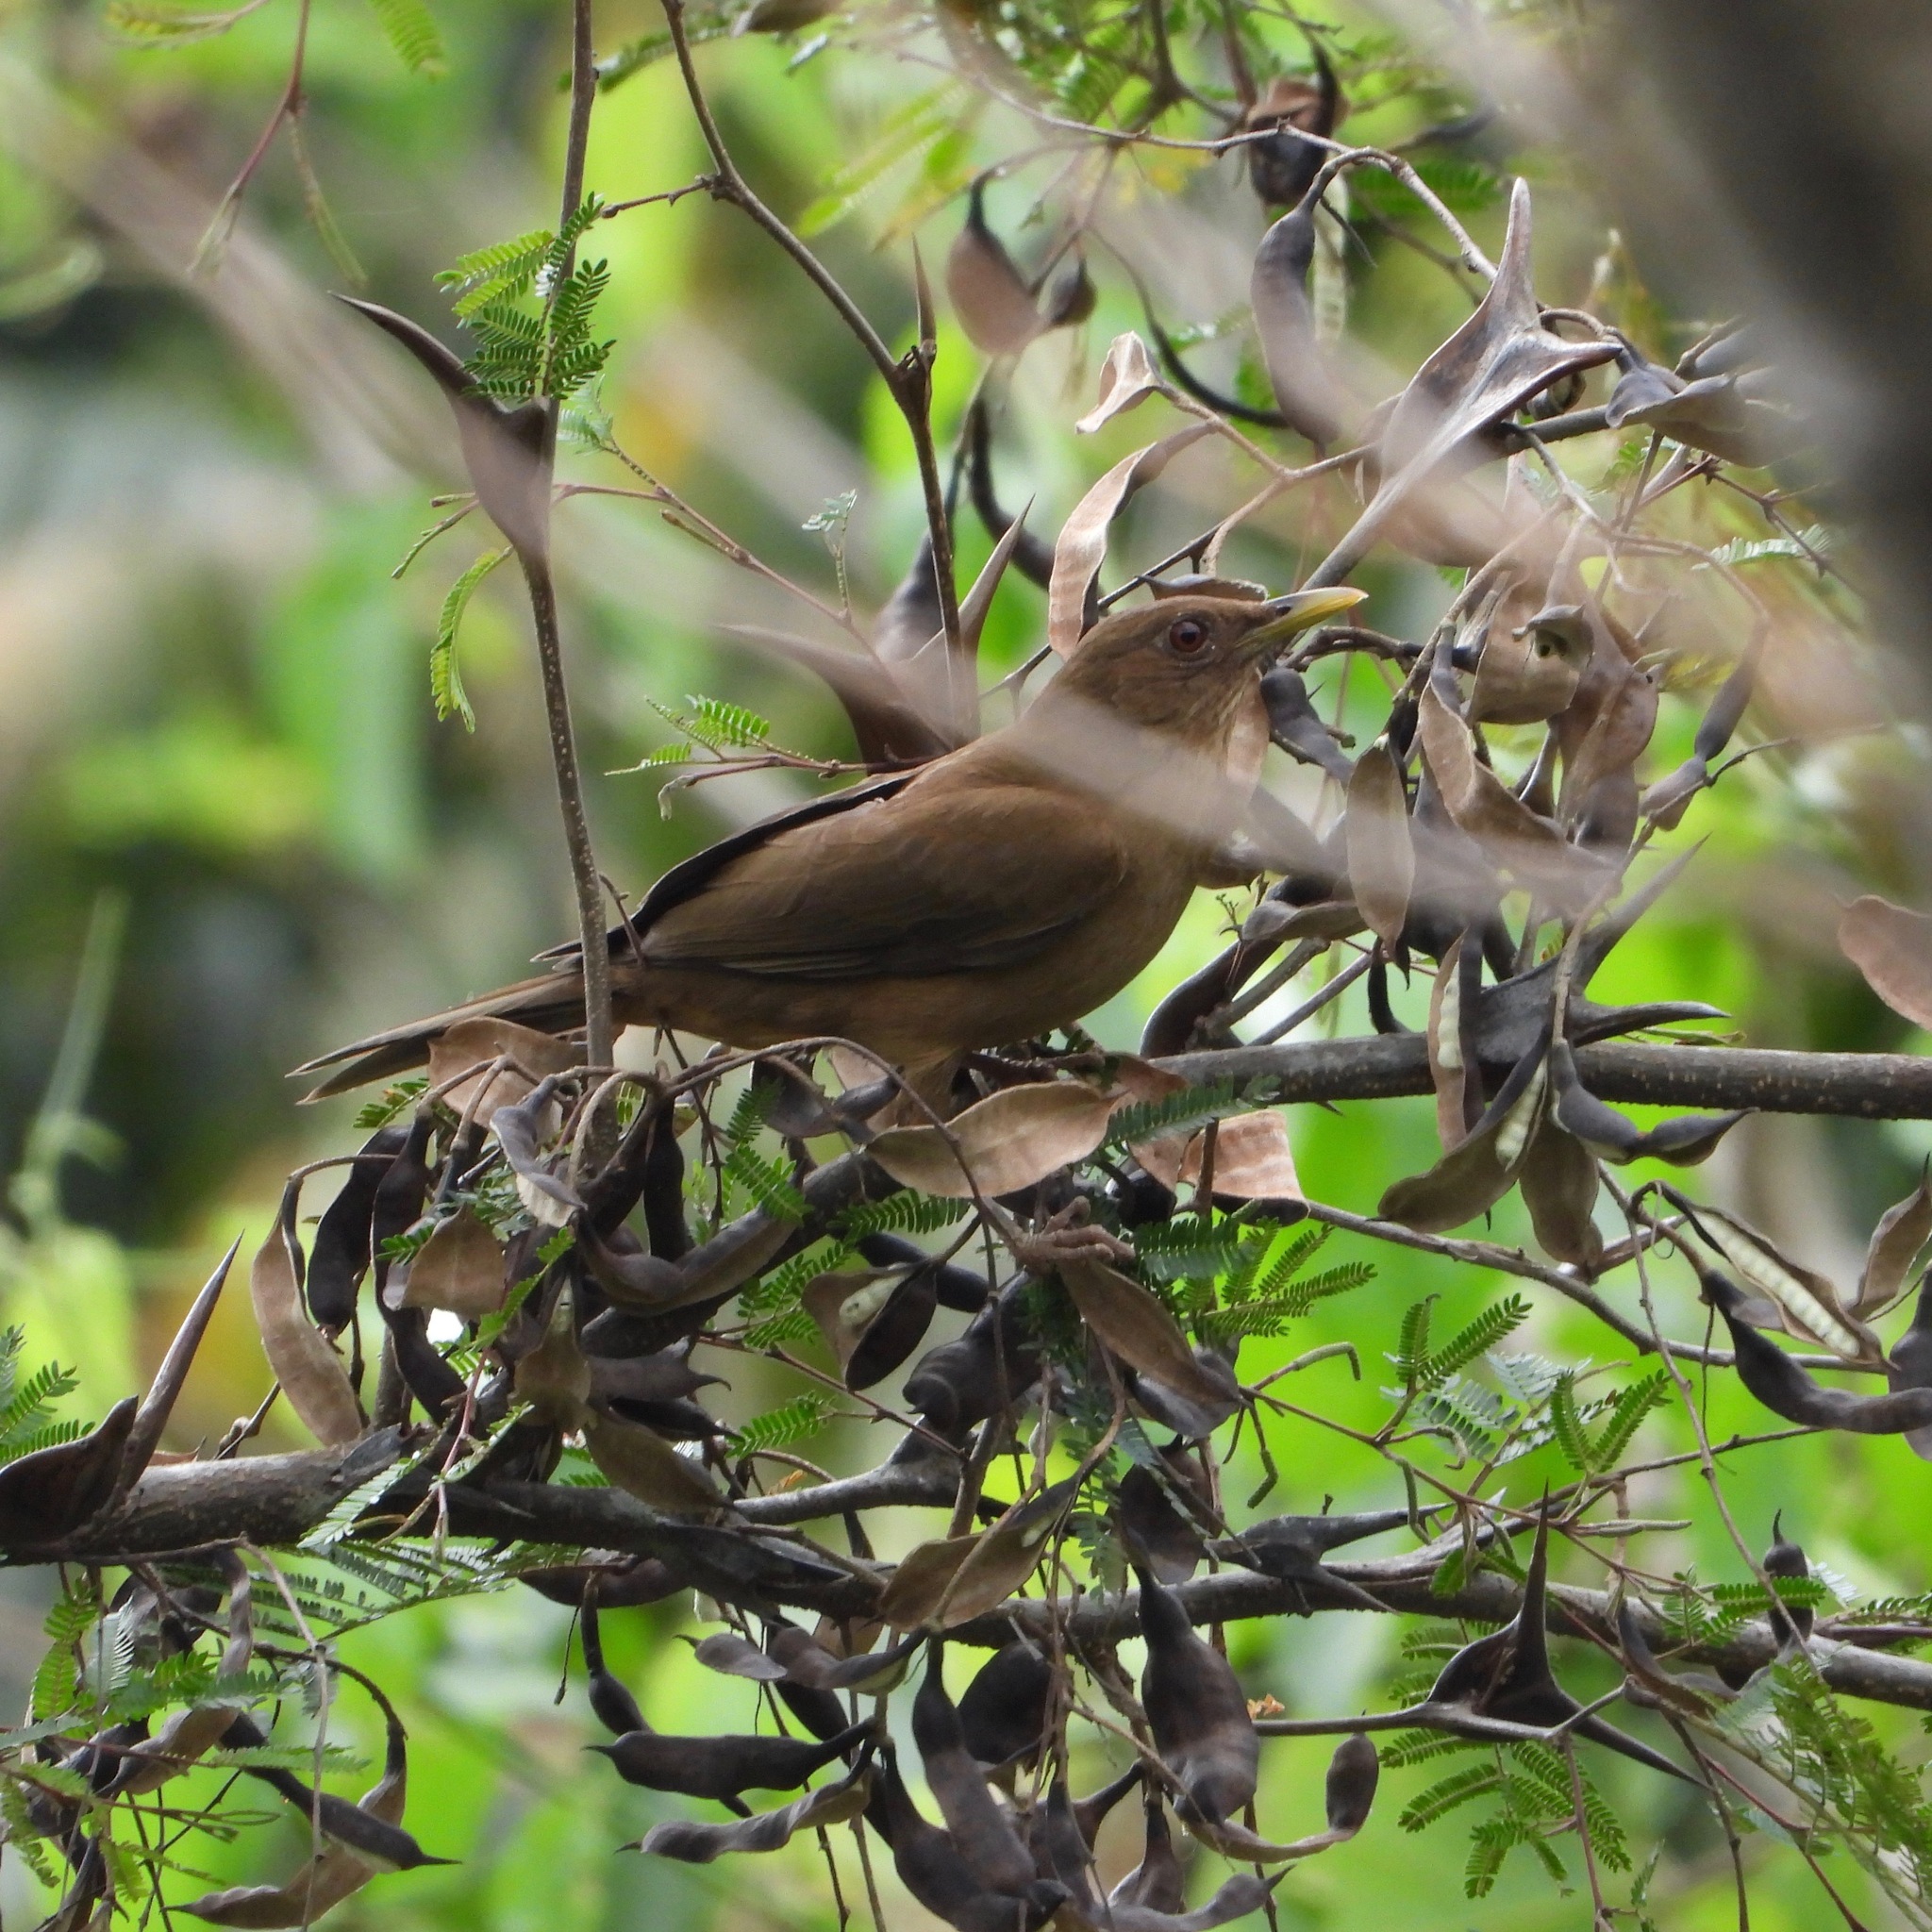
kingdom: Animalia
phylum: Chordata
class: Aves
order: Passeriformes
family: Turdidae
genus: Turdus
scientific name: Turdus grayi
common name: Clay-colored thrush
